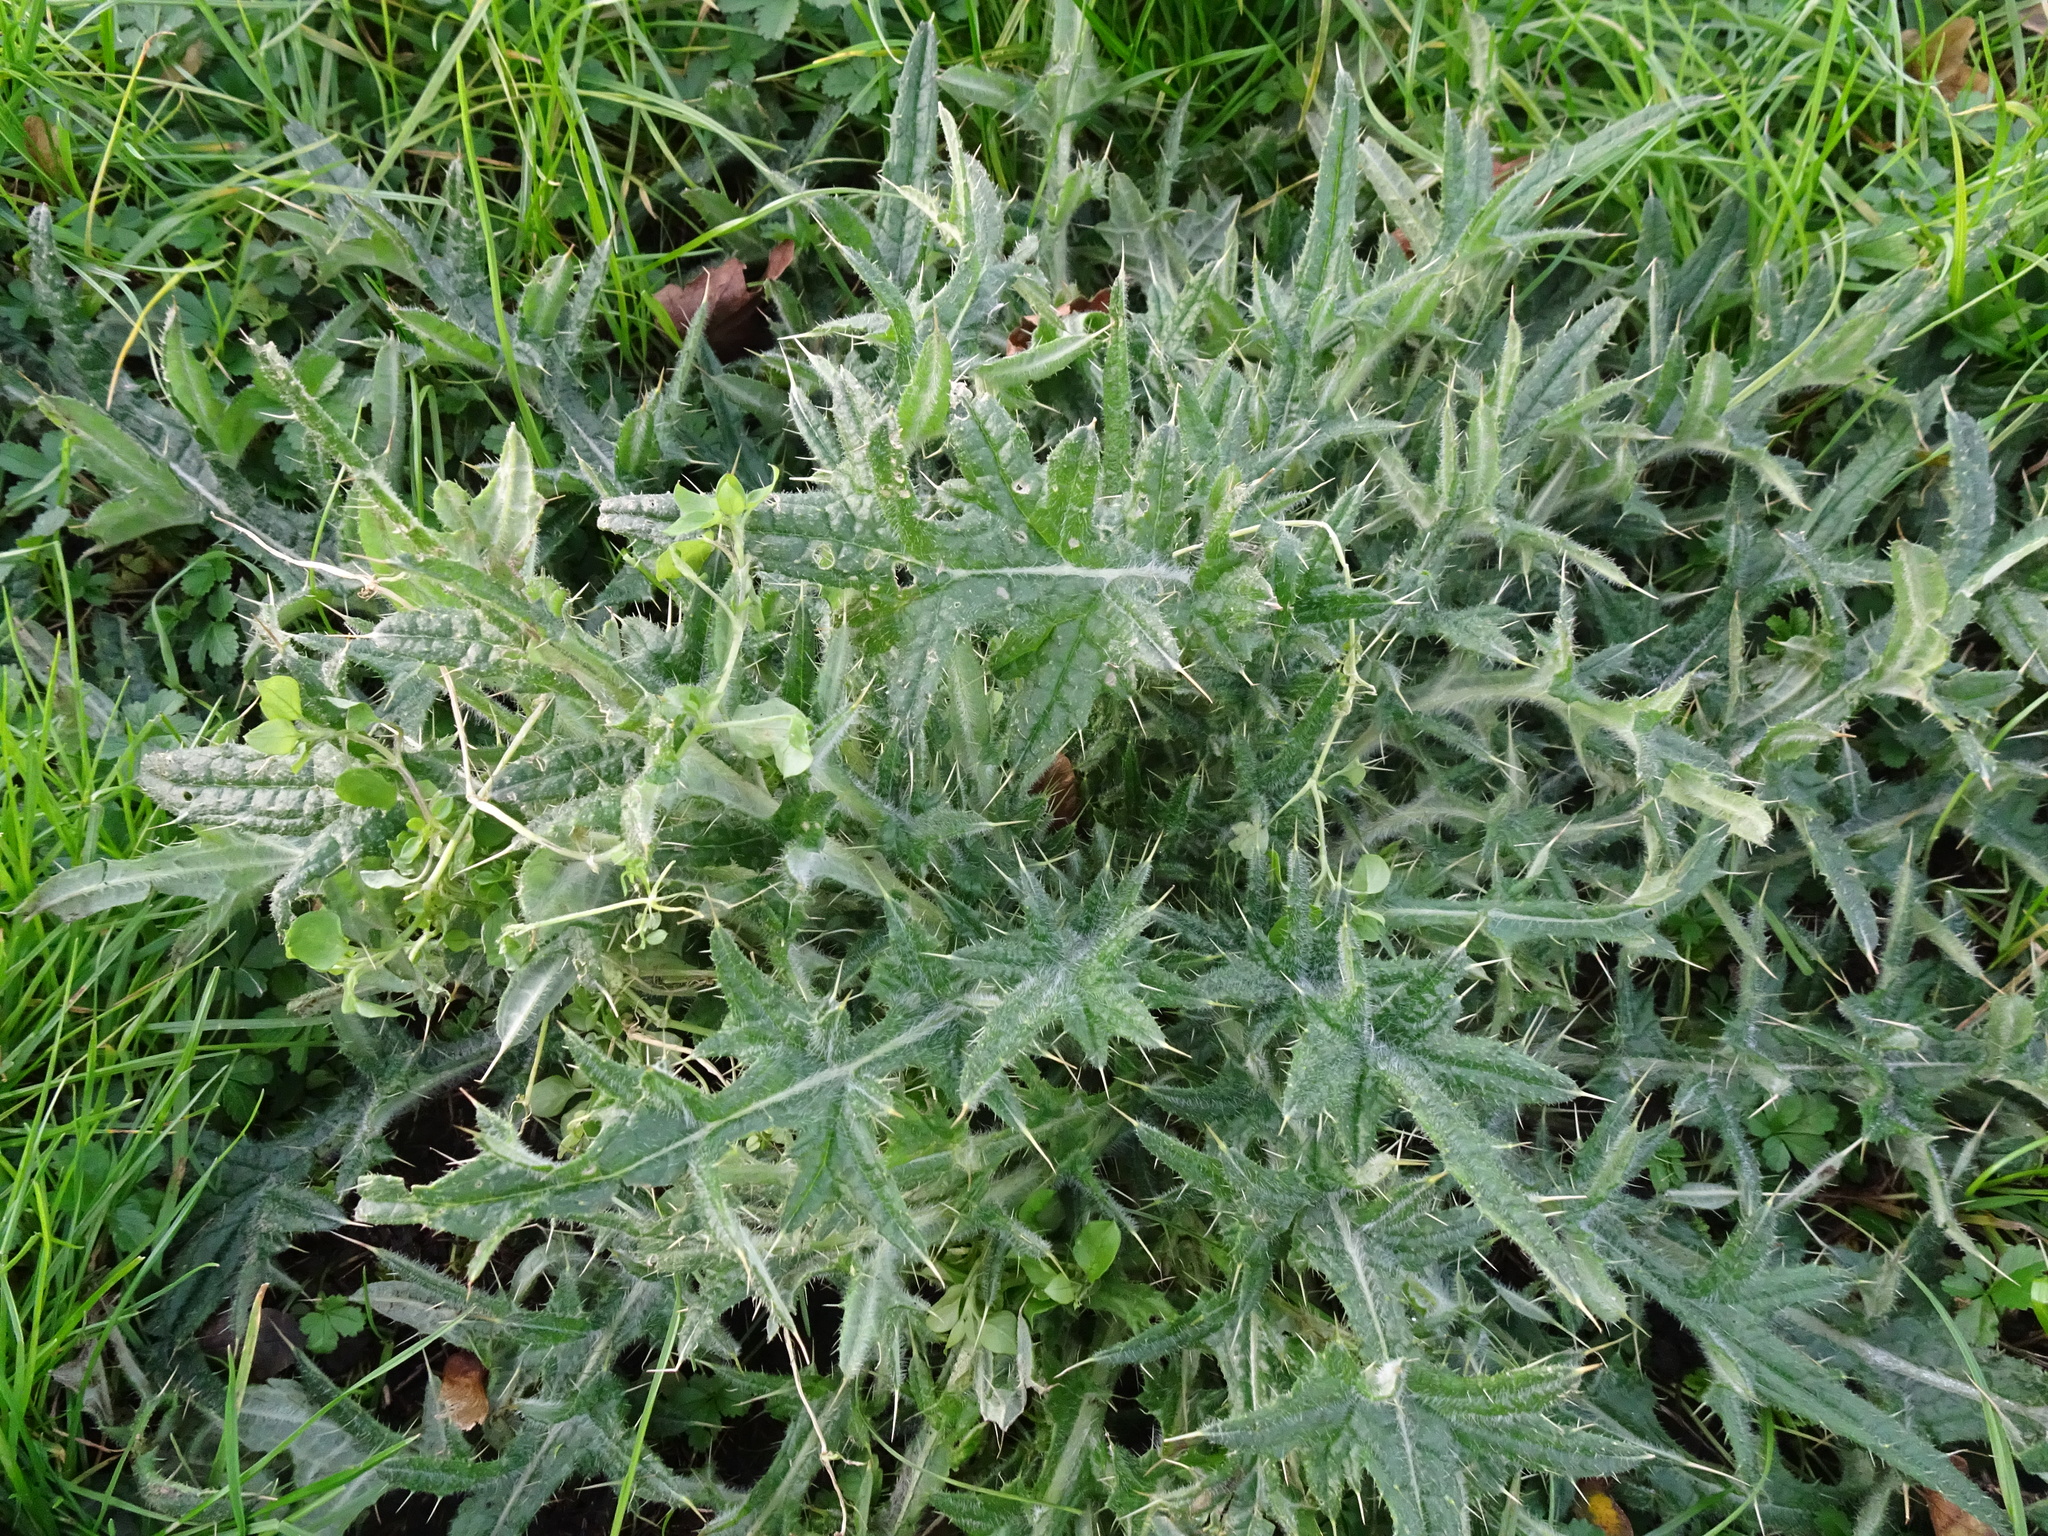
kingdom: Plantae
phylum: Tracheophyta
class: Magnoliopsida
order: Asterales
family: Asteraceae
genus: Cirsium
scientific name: Cirsium vulgare
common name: Bull thistle
